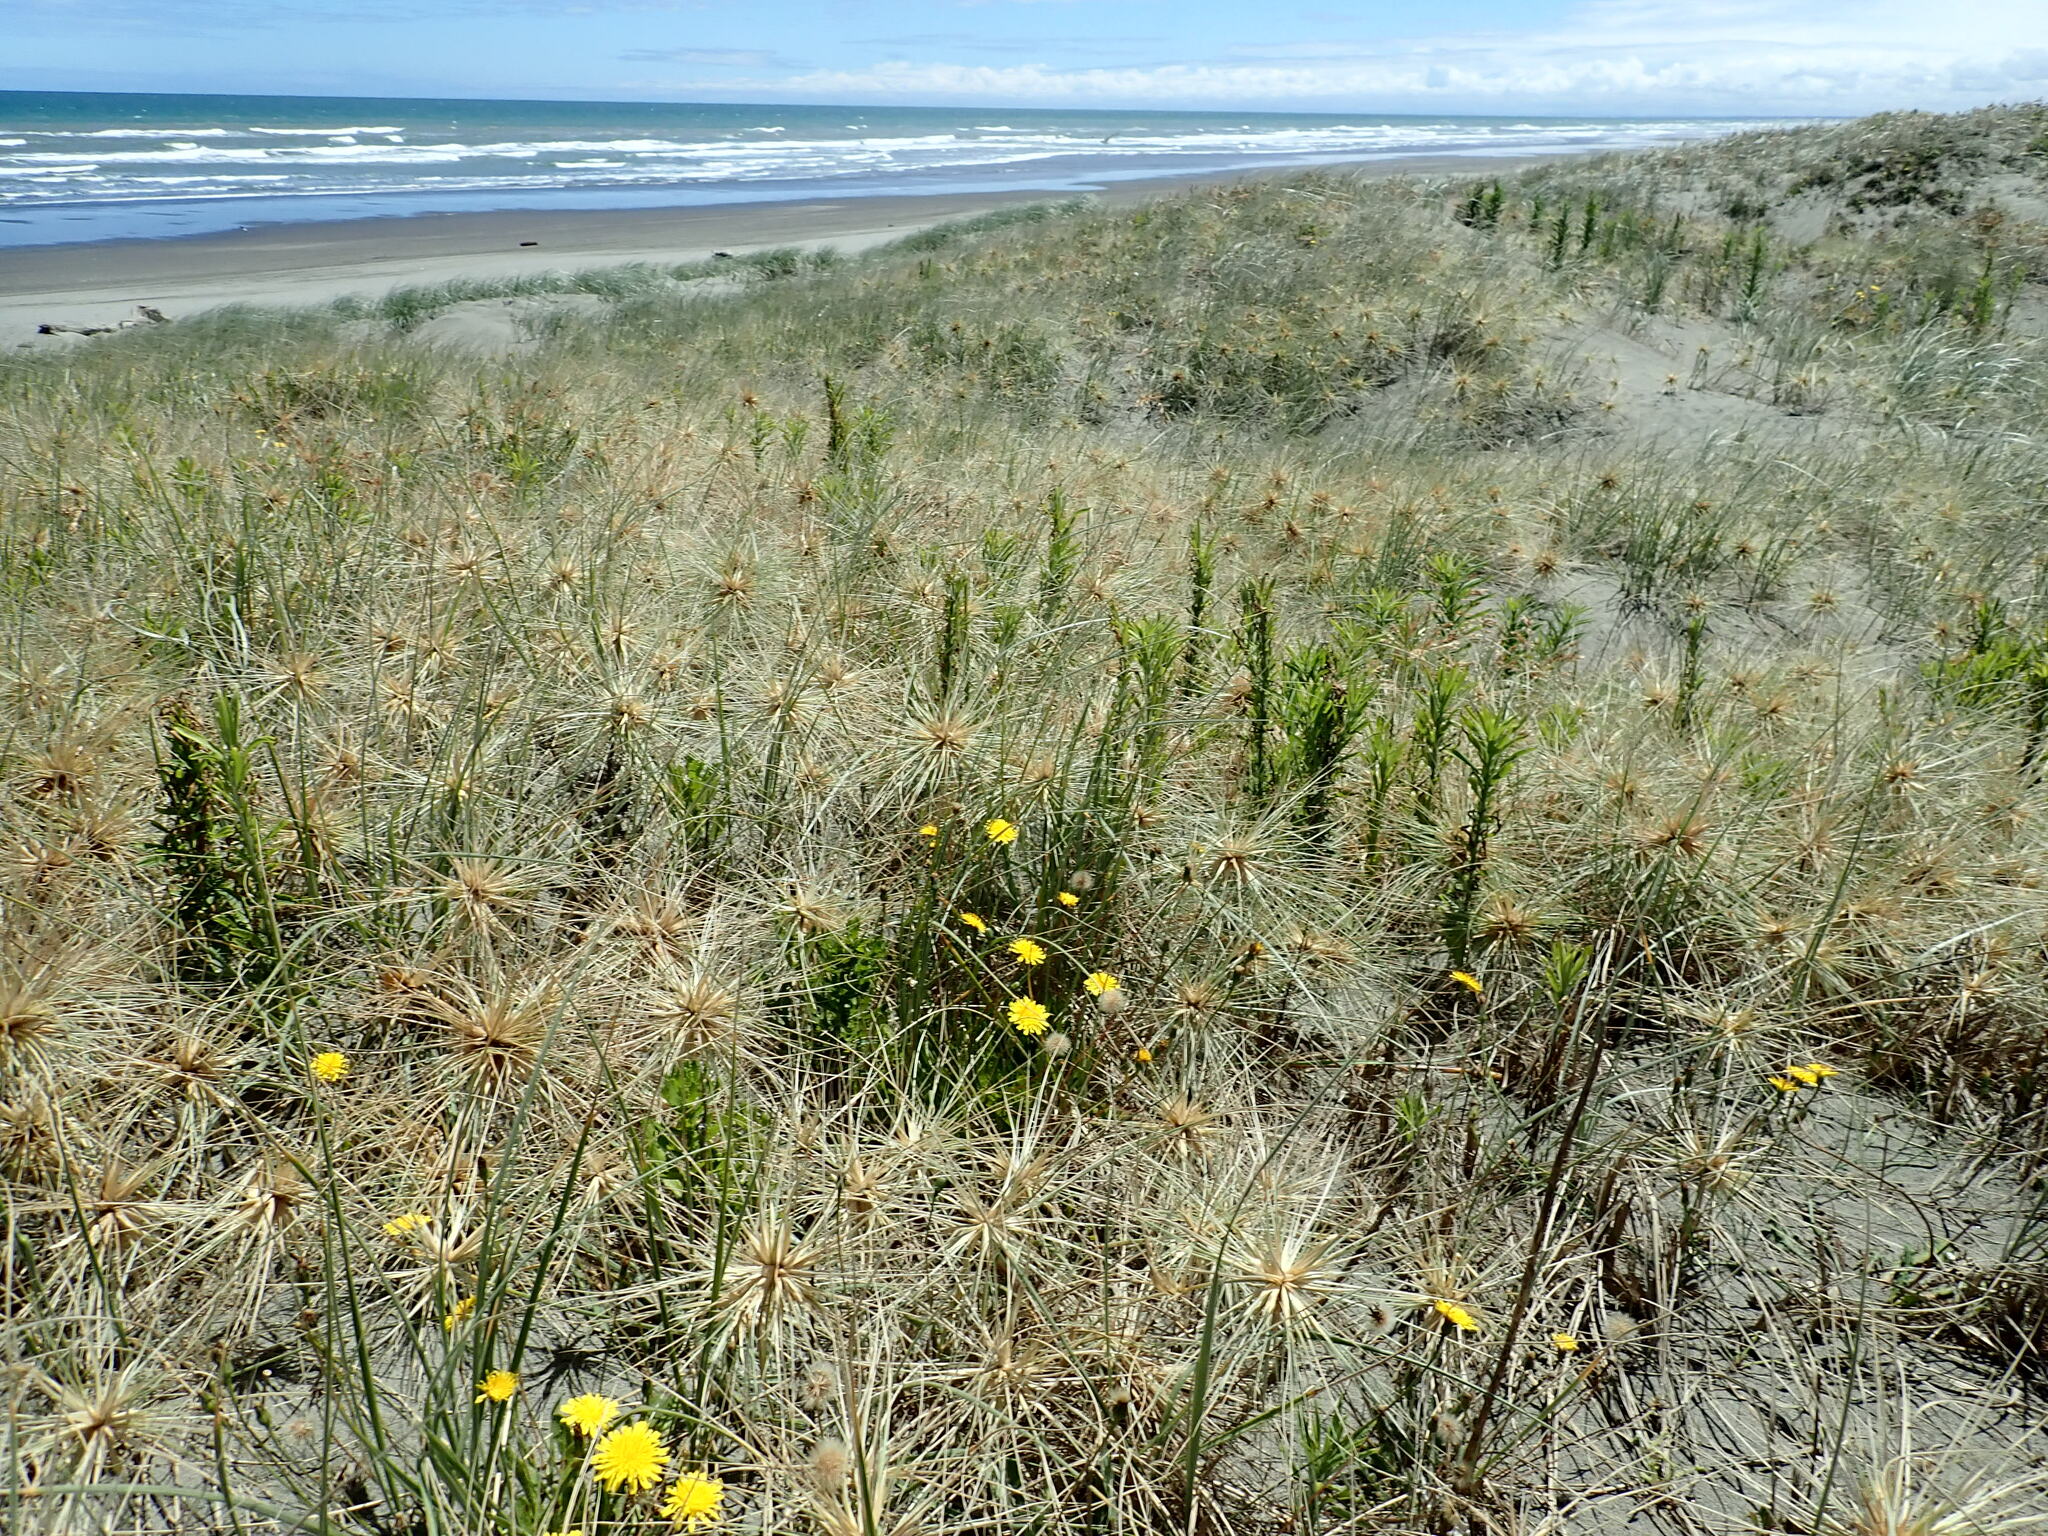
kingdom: Plantae
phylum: Tracheophyta
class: Magnoliopsida
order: Asterales
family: Asteraceae
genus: Erigeron
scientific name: Erigeron sumatrensis
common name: Daisy
